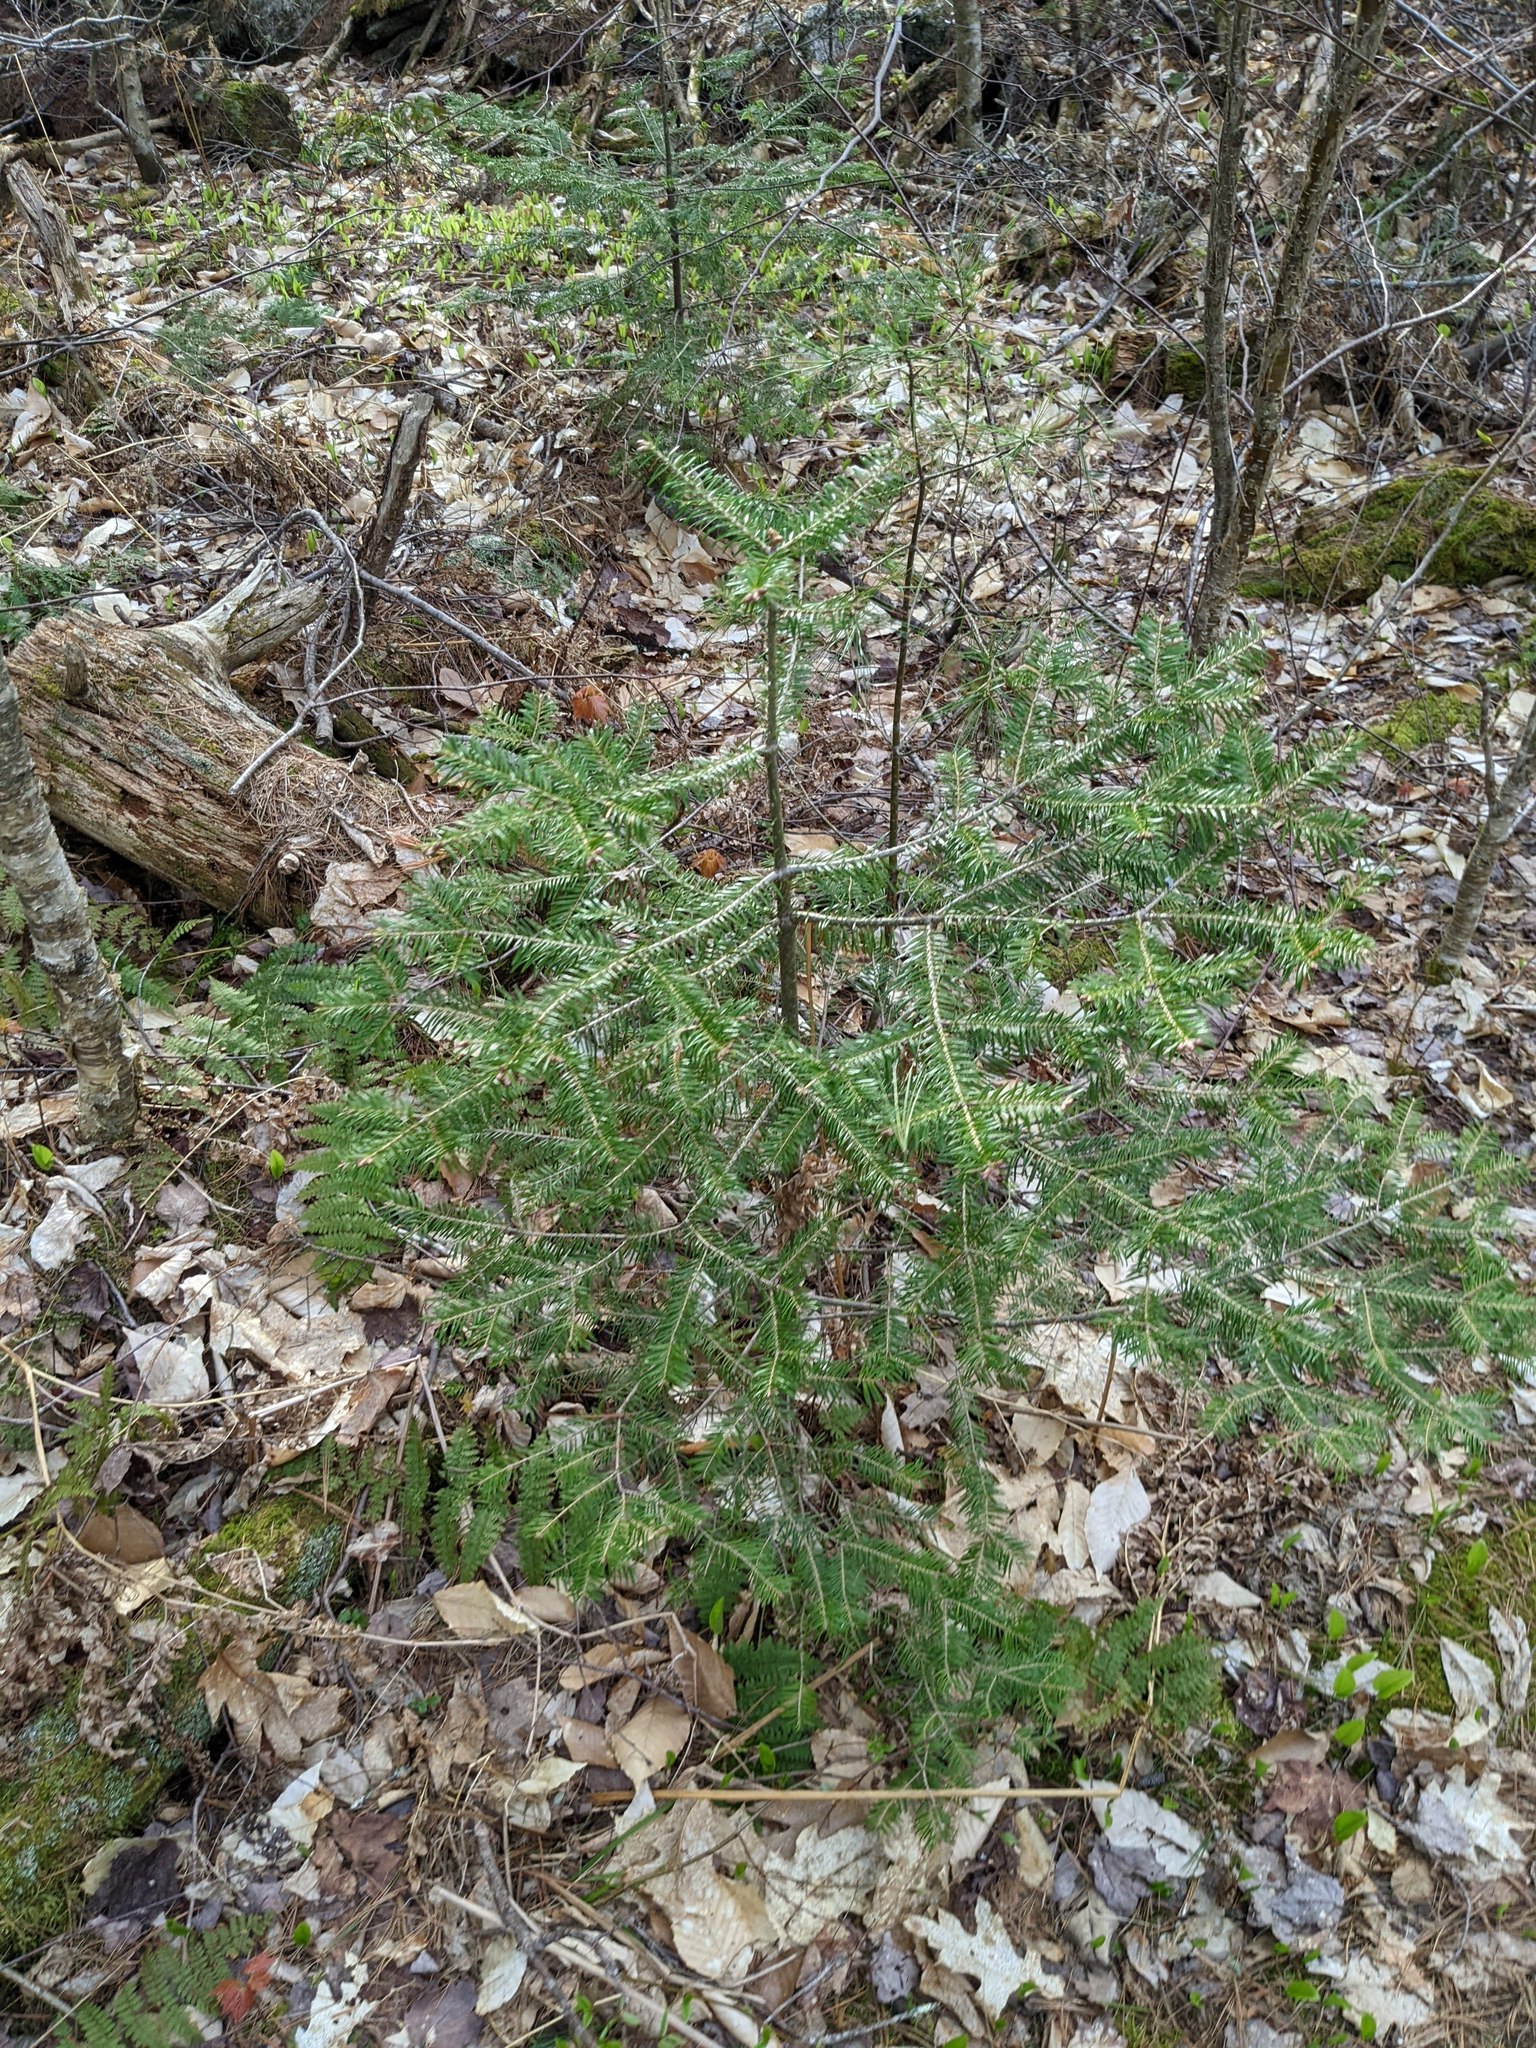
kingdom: Plantae
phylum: Tracheophyta
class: Pinopsida
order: Pinales
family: Pinaceae
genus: Abies
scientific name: Abies balsamea
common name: Balsam fir
